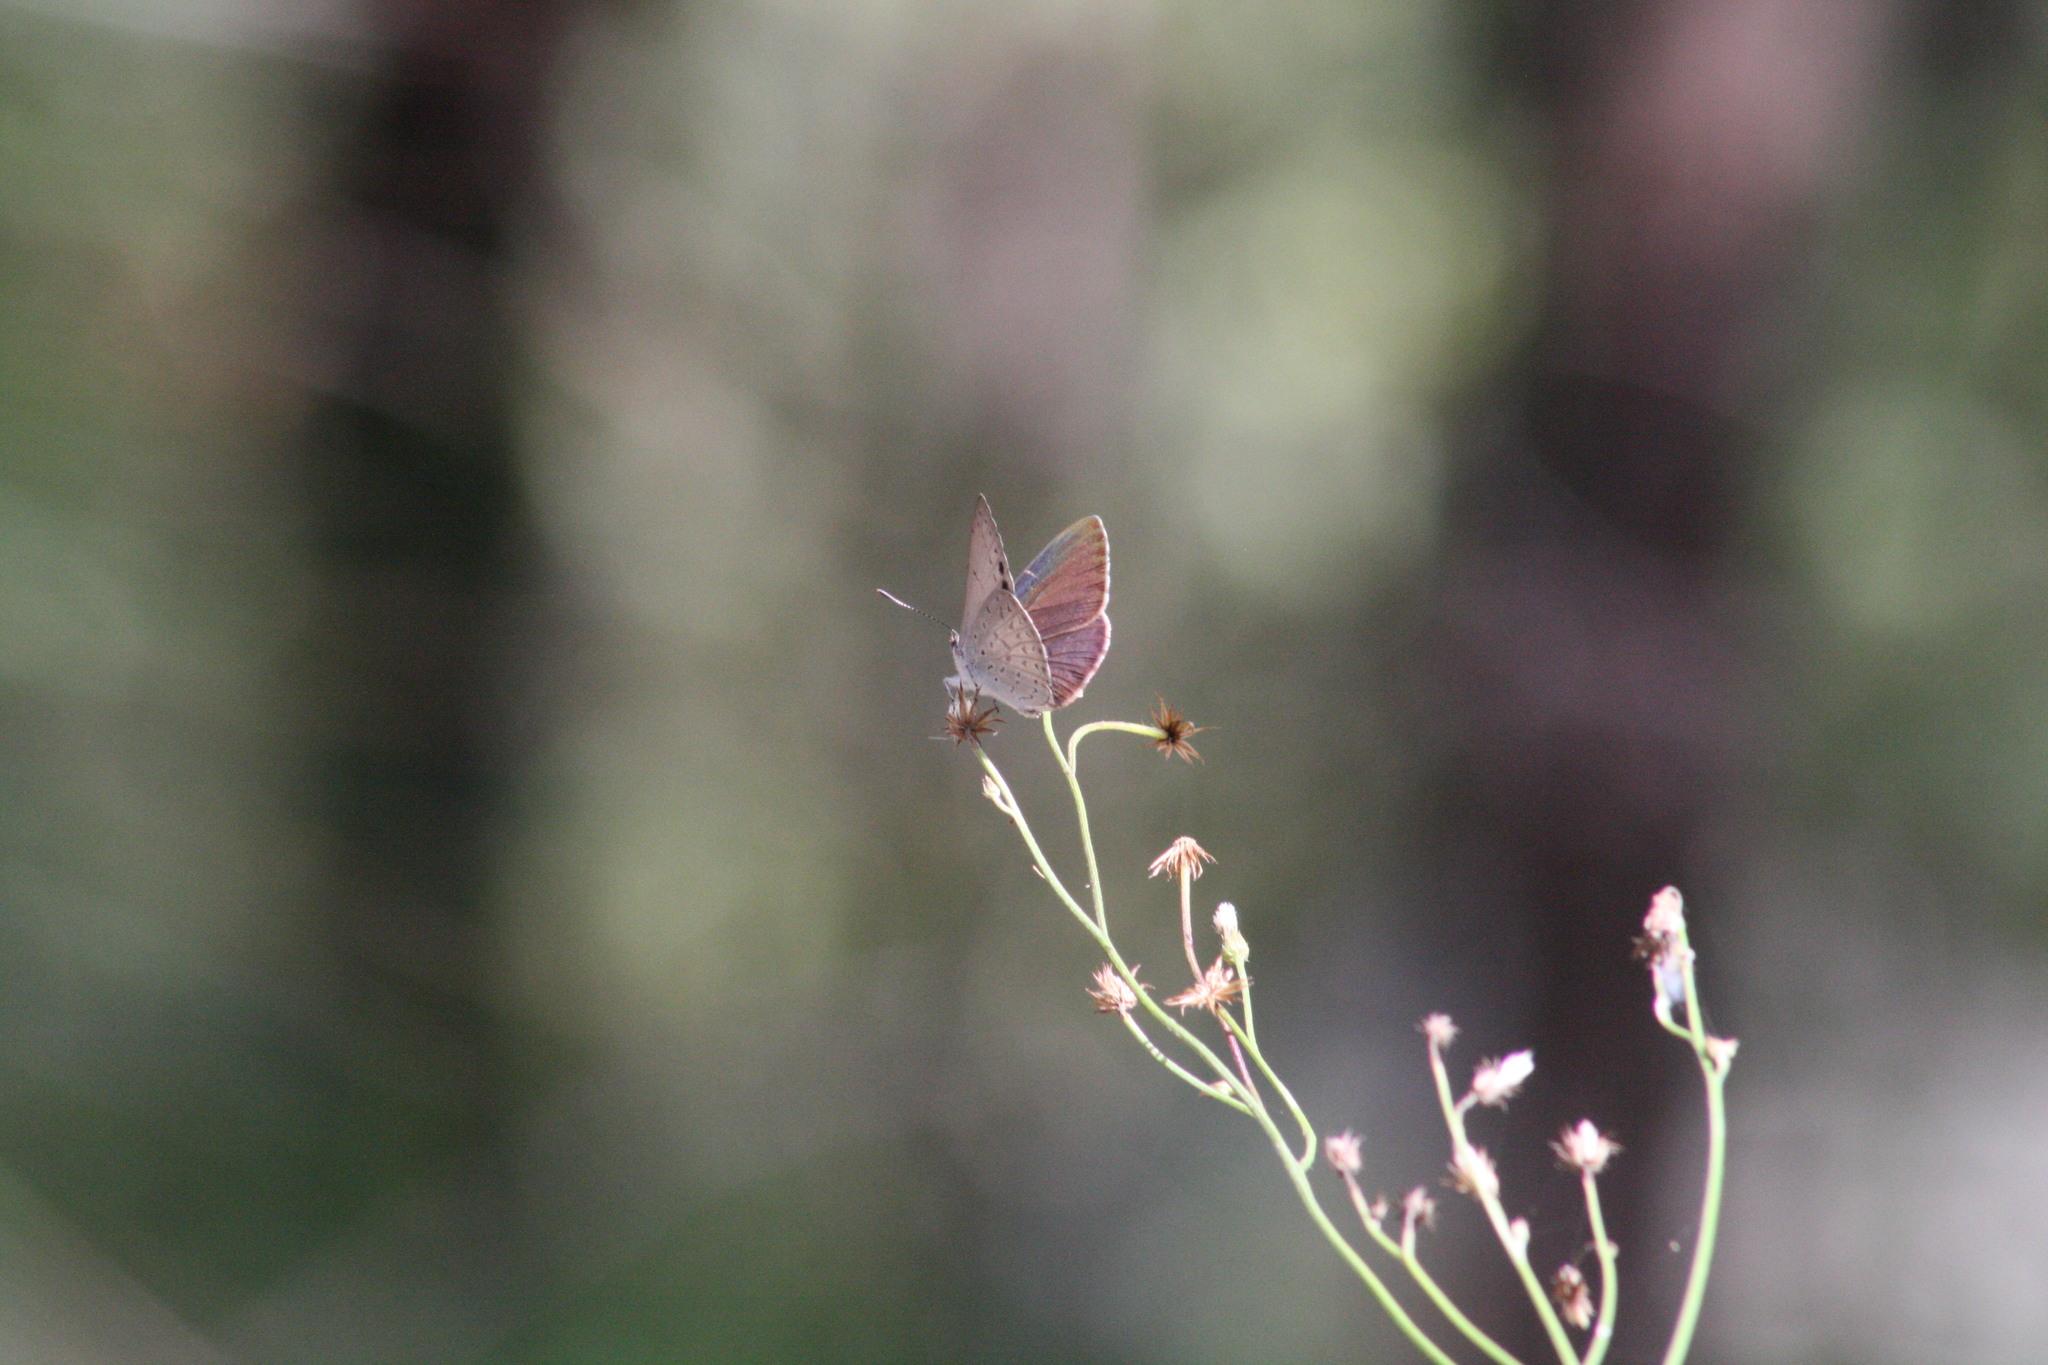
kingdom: Animalia
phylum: Arthropoda
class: Insecta
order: Lepidoptera
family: Lycaenidae
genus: Candalides
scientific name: Candalides
